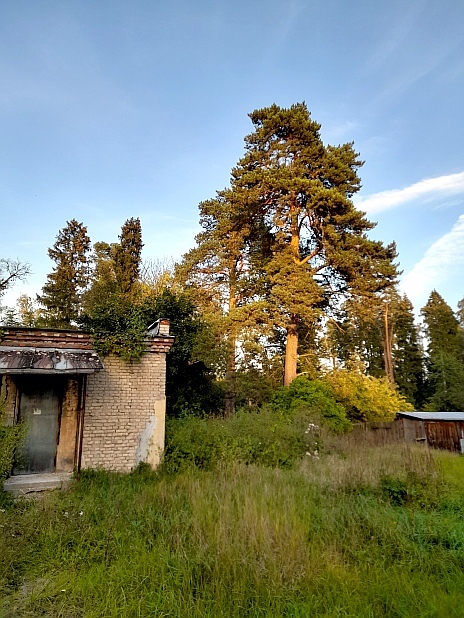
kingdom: Plantae
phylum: Tracheophyta
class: Pinopsida
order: Pinales
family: Pinaceae
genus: Pinus
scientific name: Pinus sylvestris
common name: Scots pine
